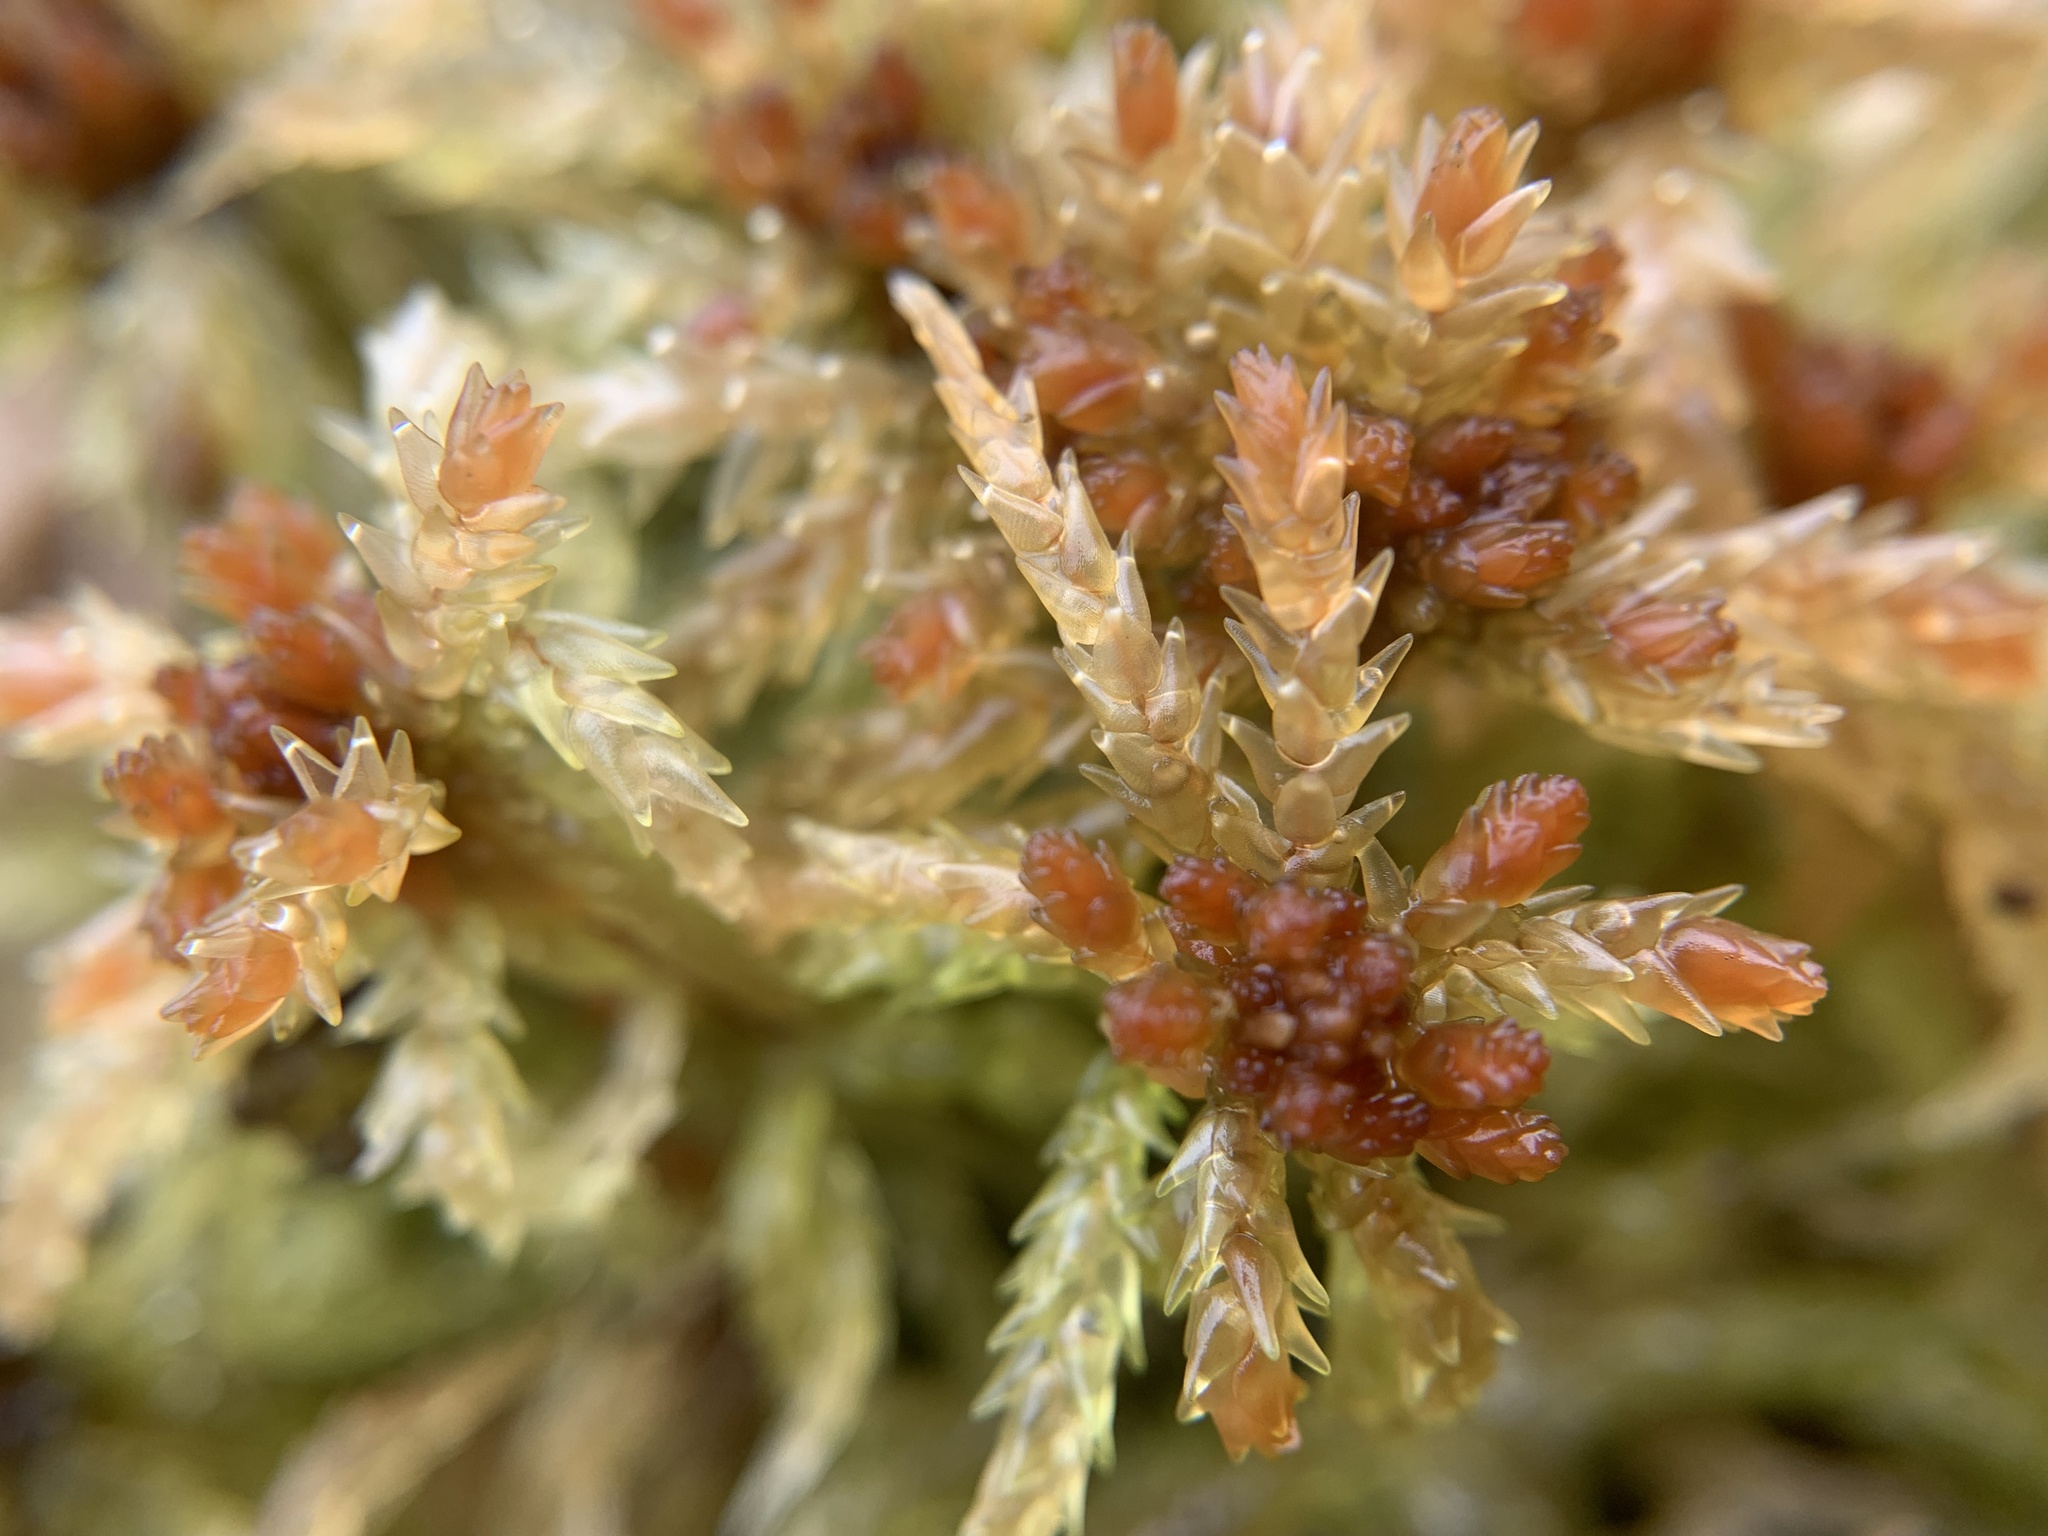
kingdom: Plantae
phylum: Bryophyta
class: Sphagnopsida
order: Sphagnales
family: Sphagnaceae
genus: Sphagnum
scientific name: Sphagnum palustre
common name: Blunt-leaved bog-moss
